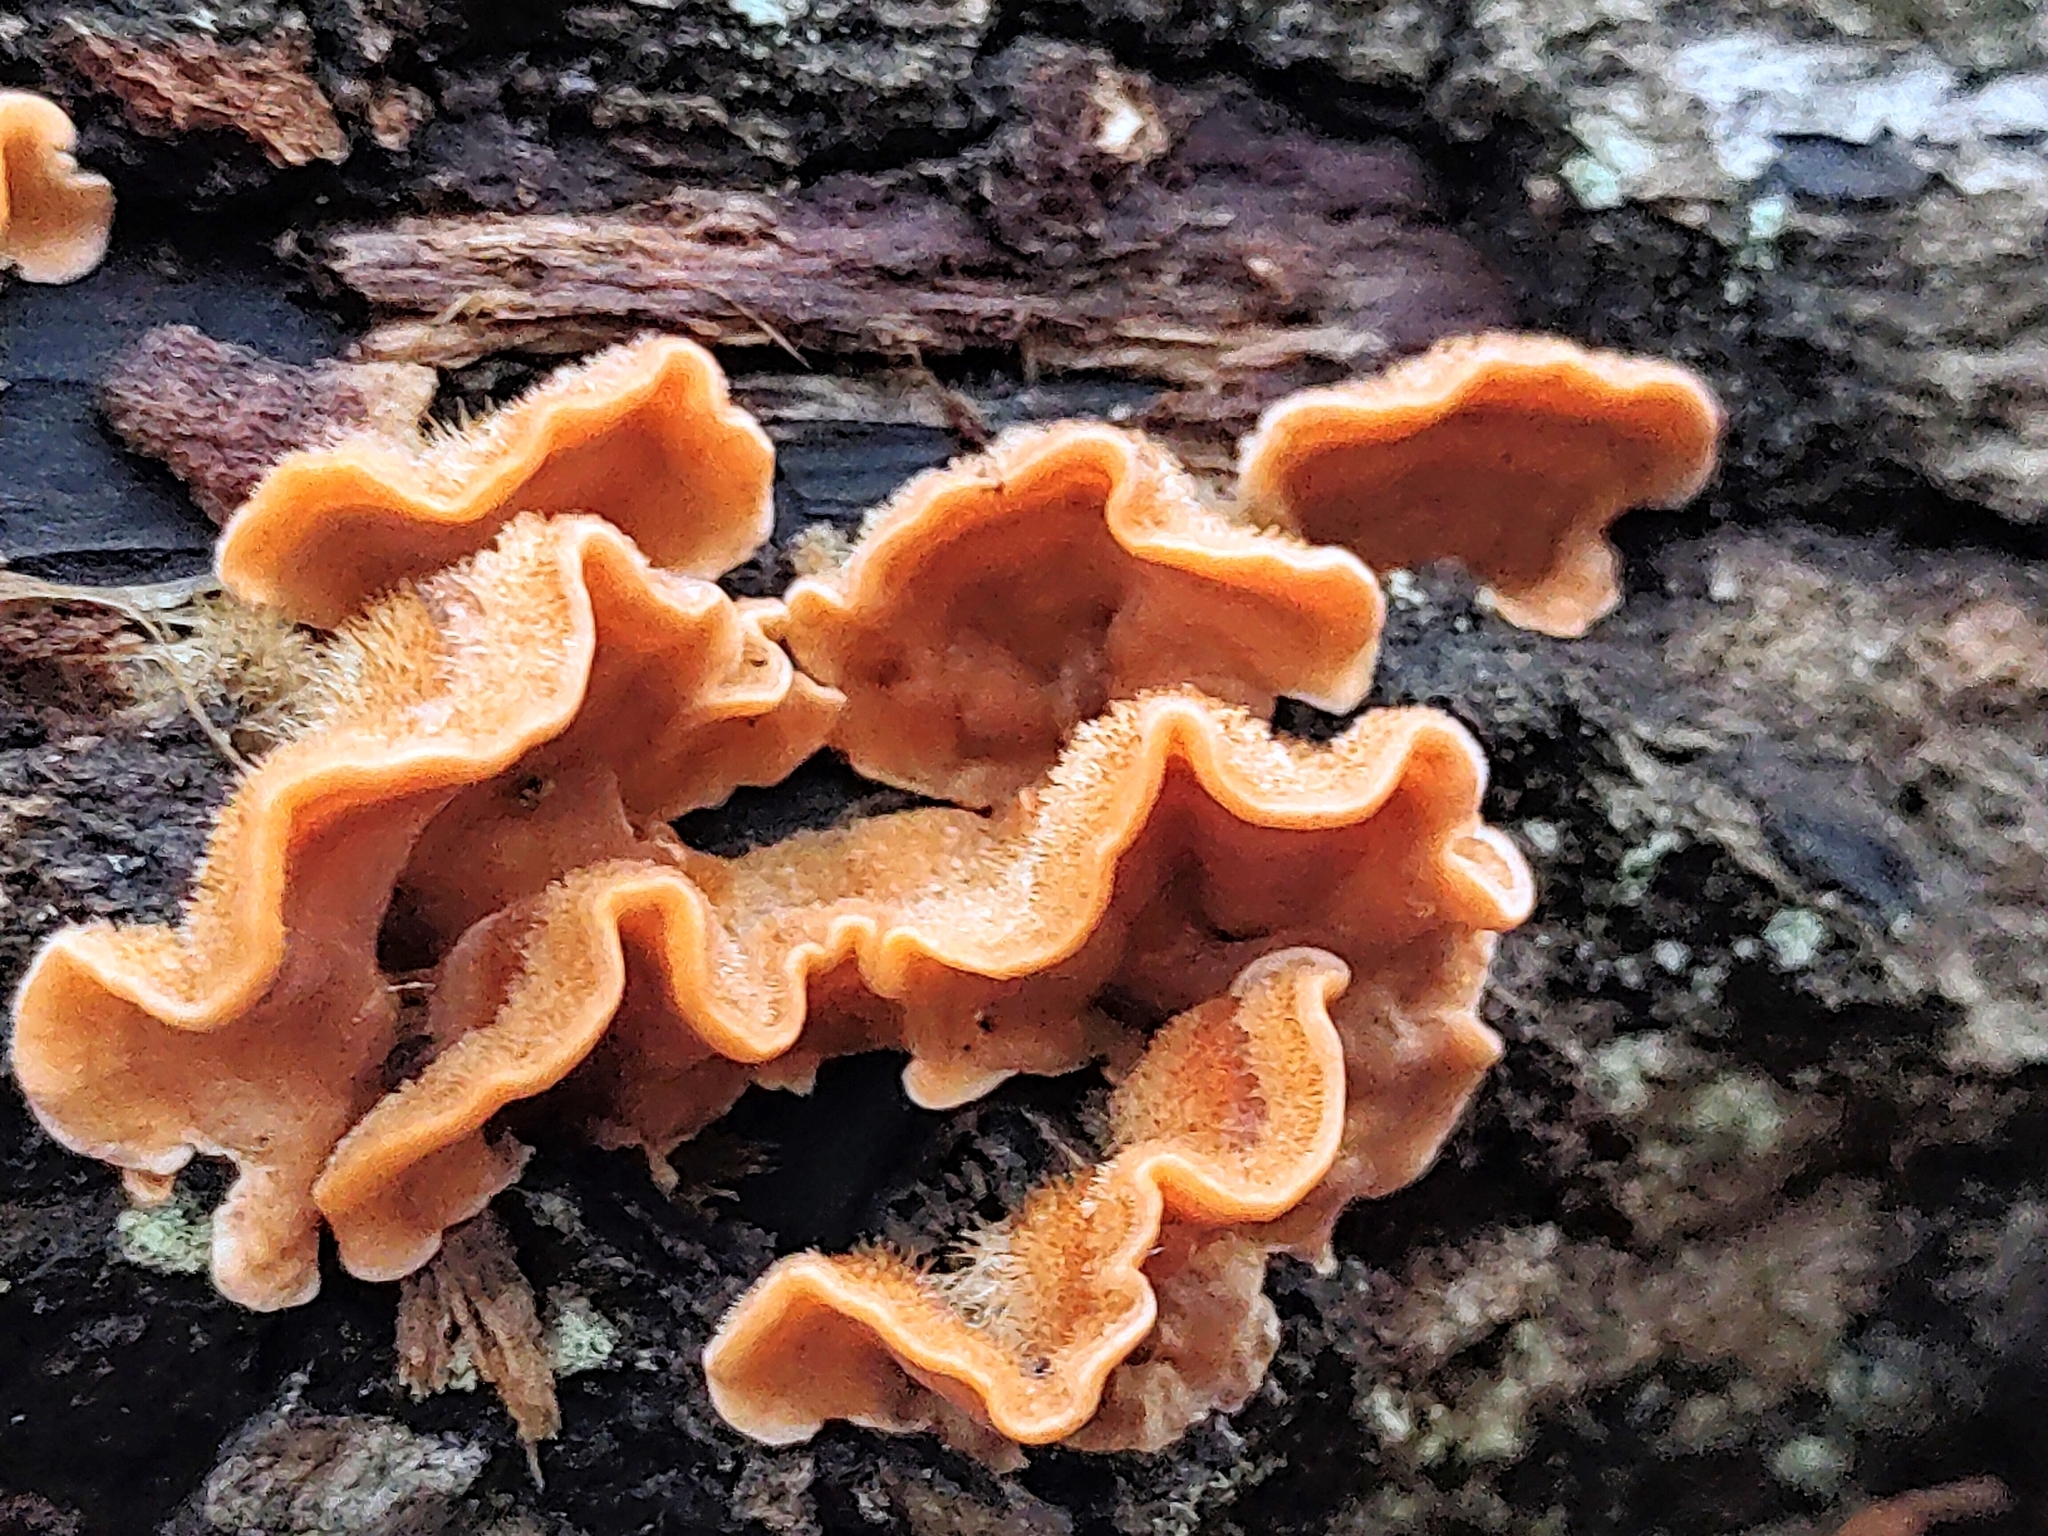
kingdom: Fungi
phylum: Basidiomycota
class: Agaricomycetes
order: Russulales
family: Stereaceae
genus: Stereum
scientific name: Stereum hirsutum
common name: Hairy curtain crust
